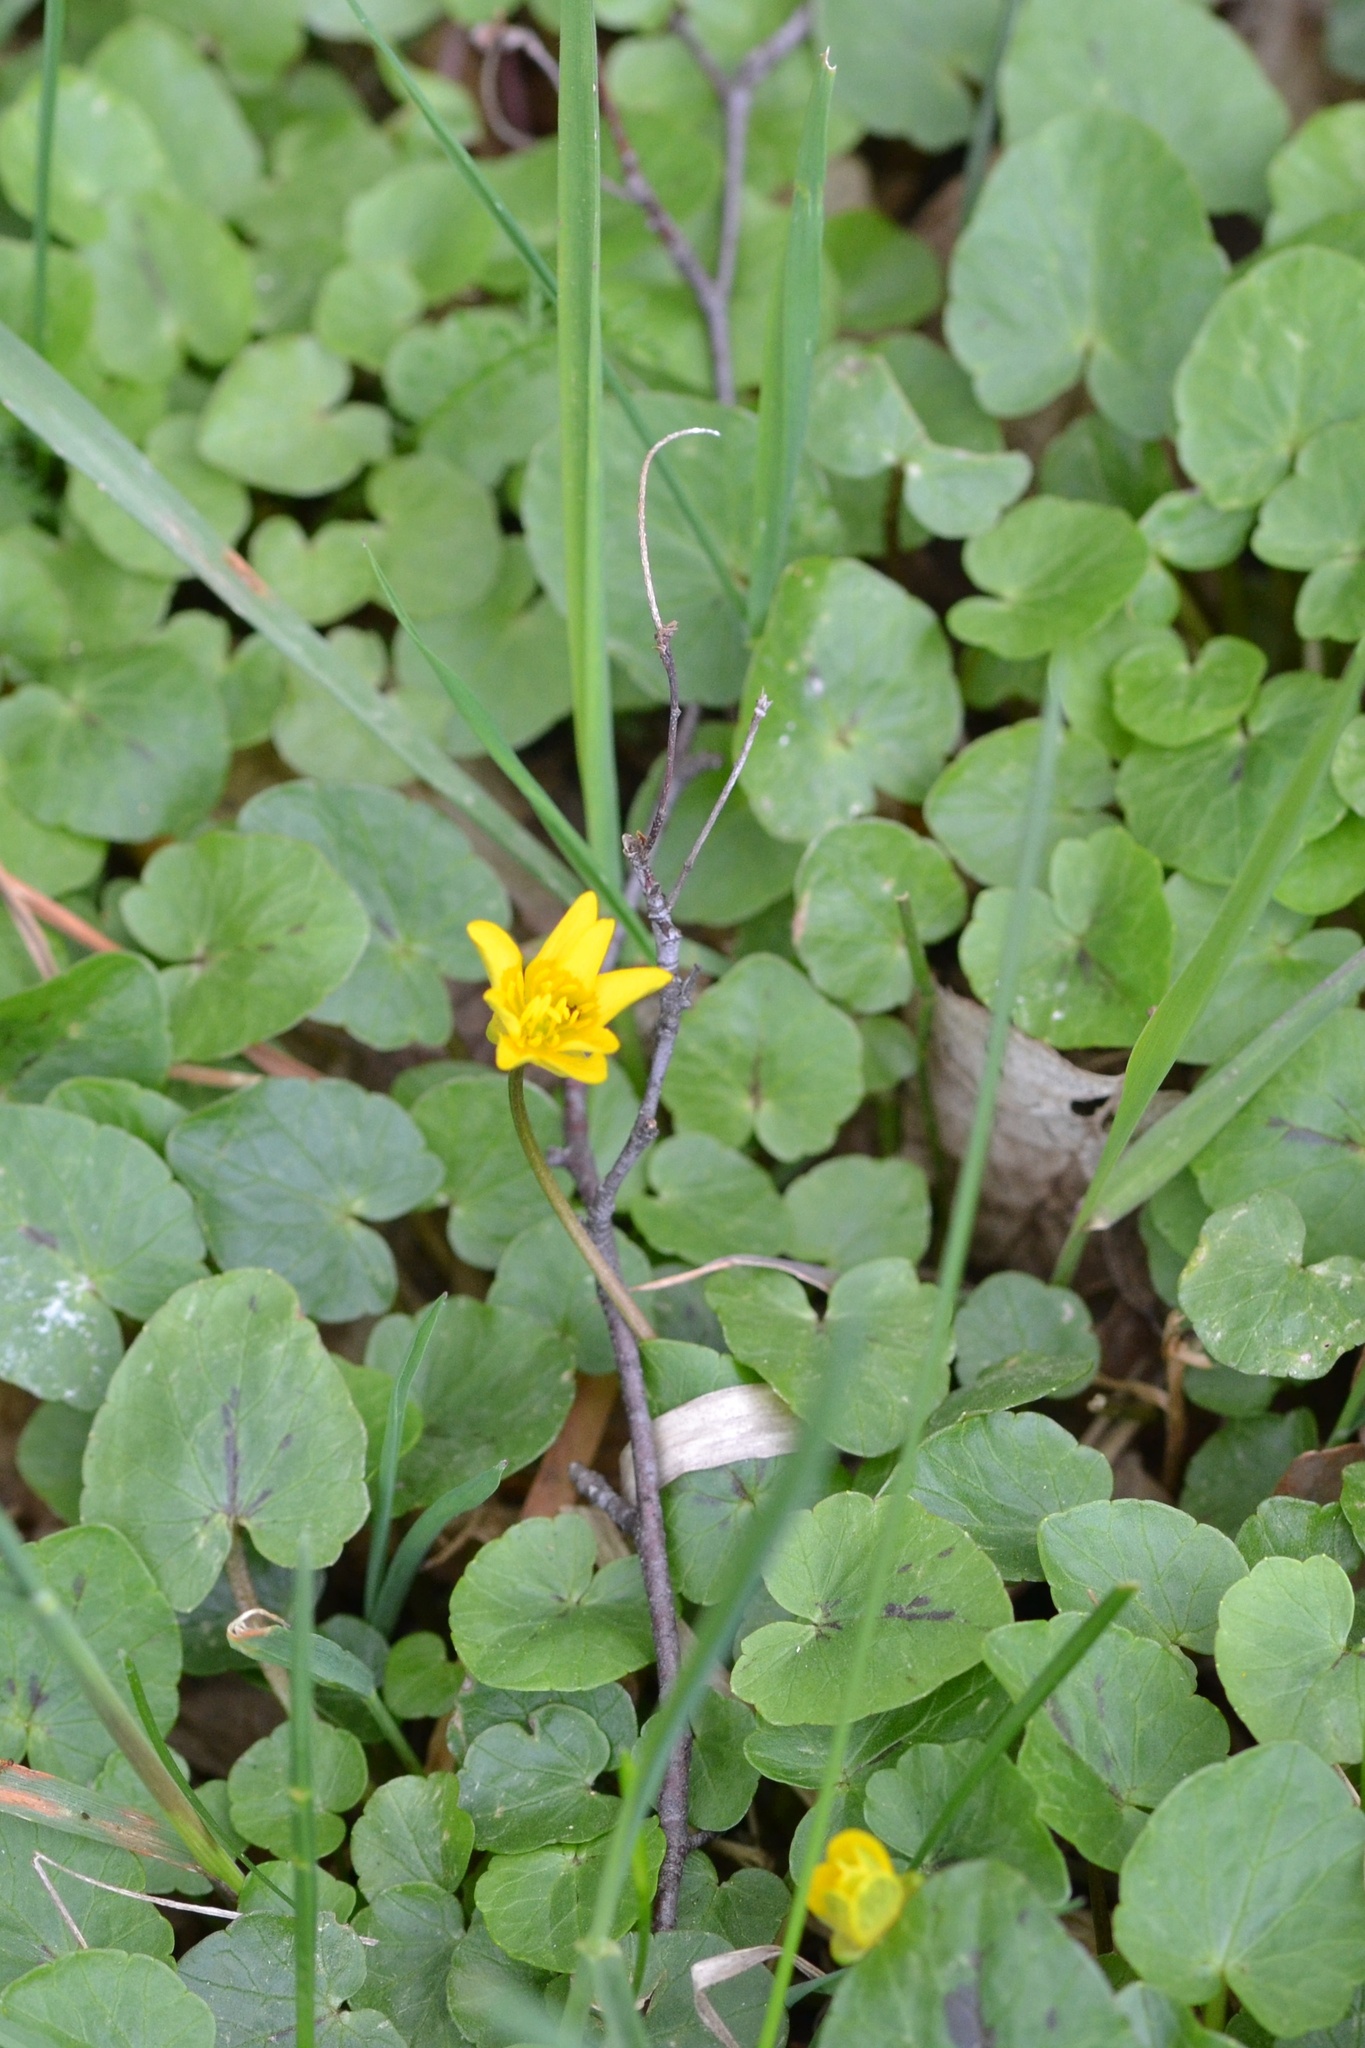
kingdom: Plantae
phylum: Tracheophyta
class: Magnoliopsida
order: Ranunculales
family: Ranunculaceae
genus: Ficaria
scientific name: Ficaria verna
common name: Lesser celandine
